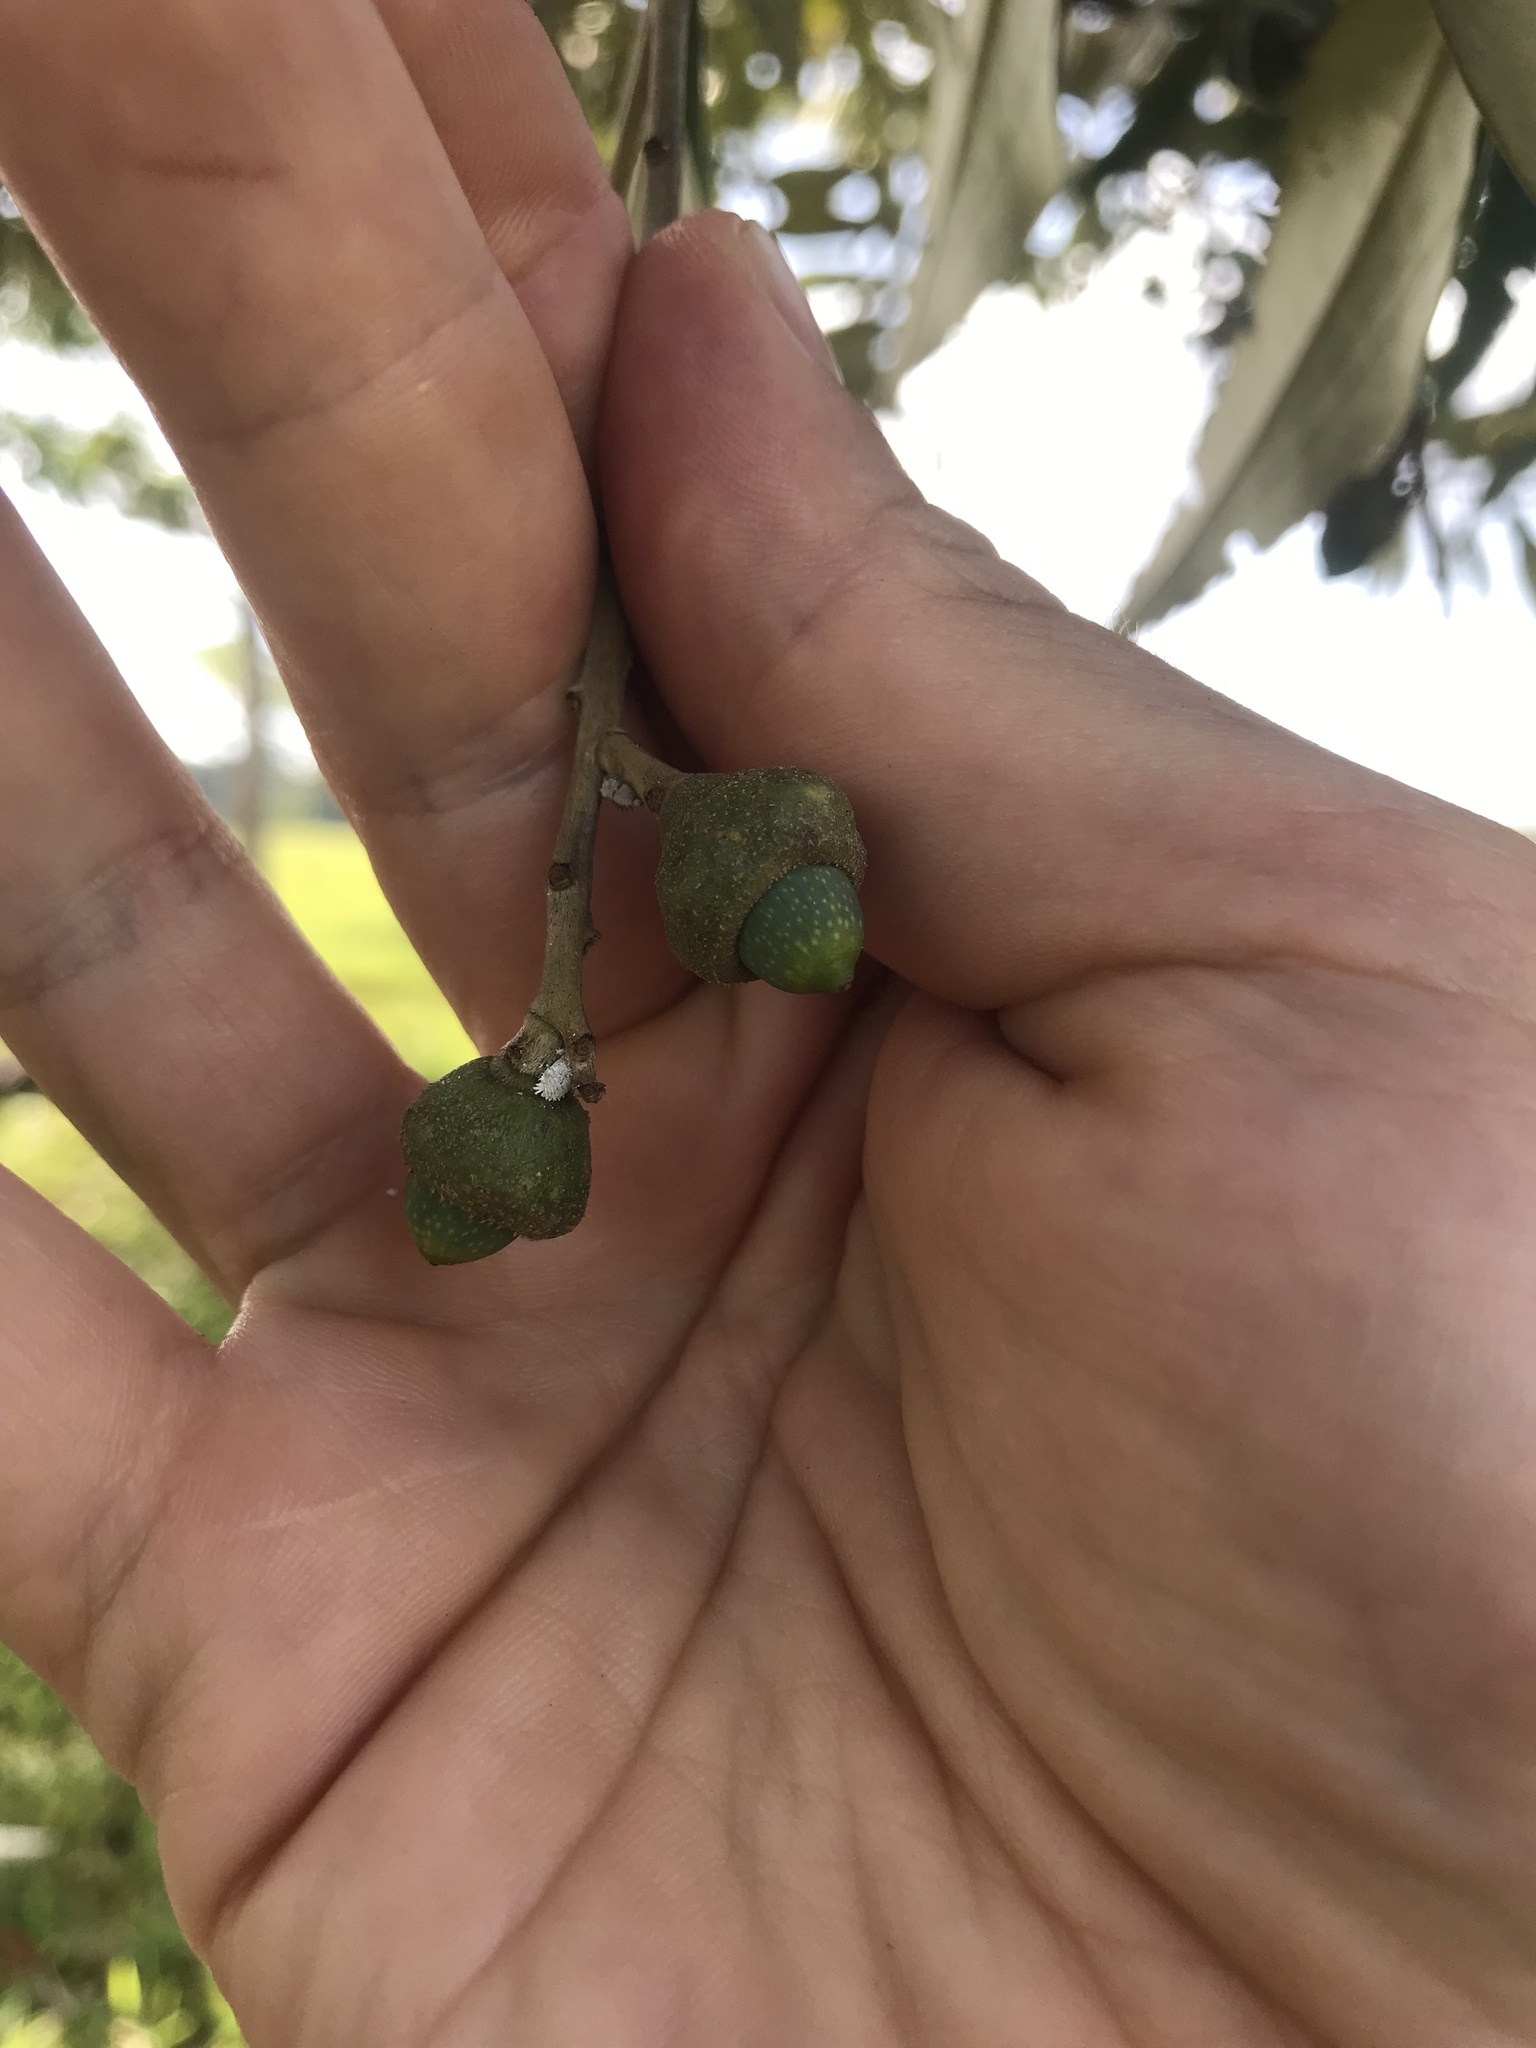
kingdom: Plantae
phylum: Tracheophyta
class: Magnoliopsida
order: Laurales
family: Lauraceae
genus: Ocotea
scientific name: Ocotea guianensis
